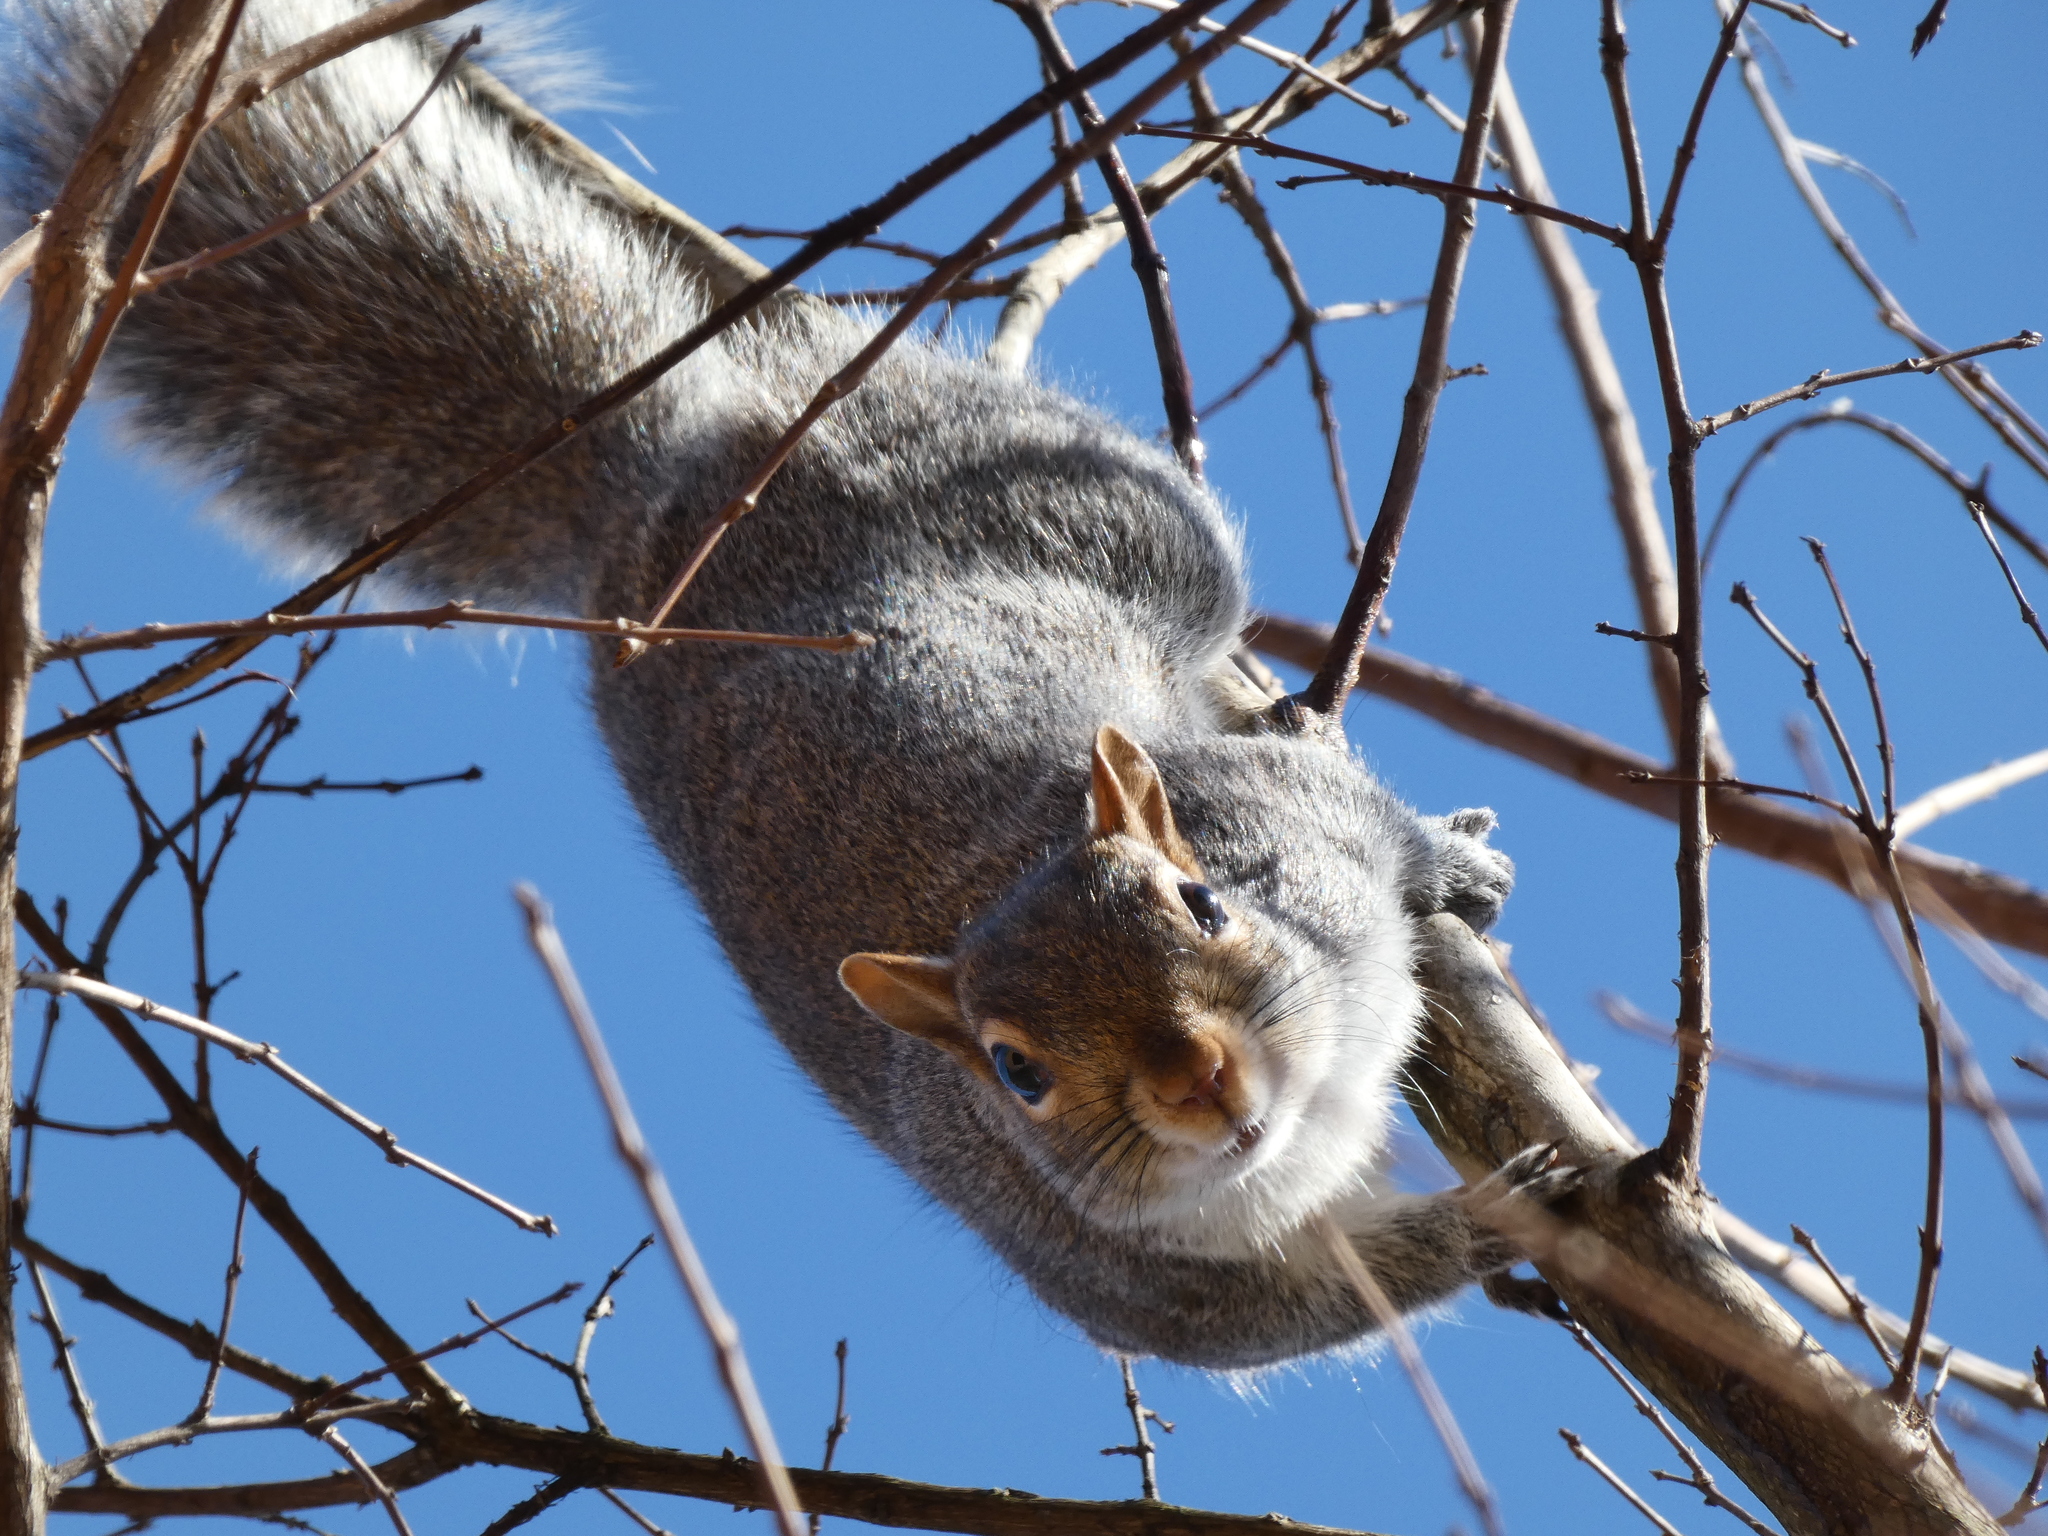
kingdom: Animalia
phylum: Chordata
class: Mammalia
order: Rodentia
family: Sciuridae
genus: Sciurus
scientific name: Sciurus carolinensis
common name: Eastern gray squirrel
